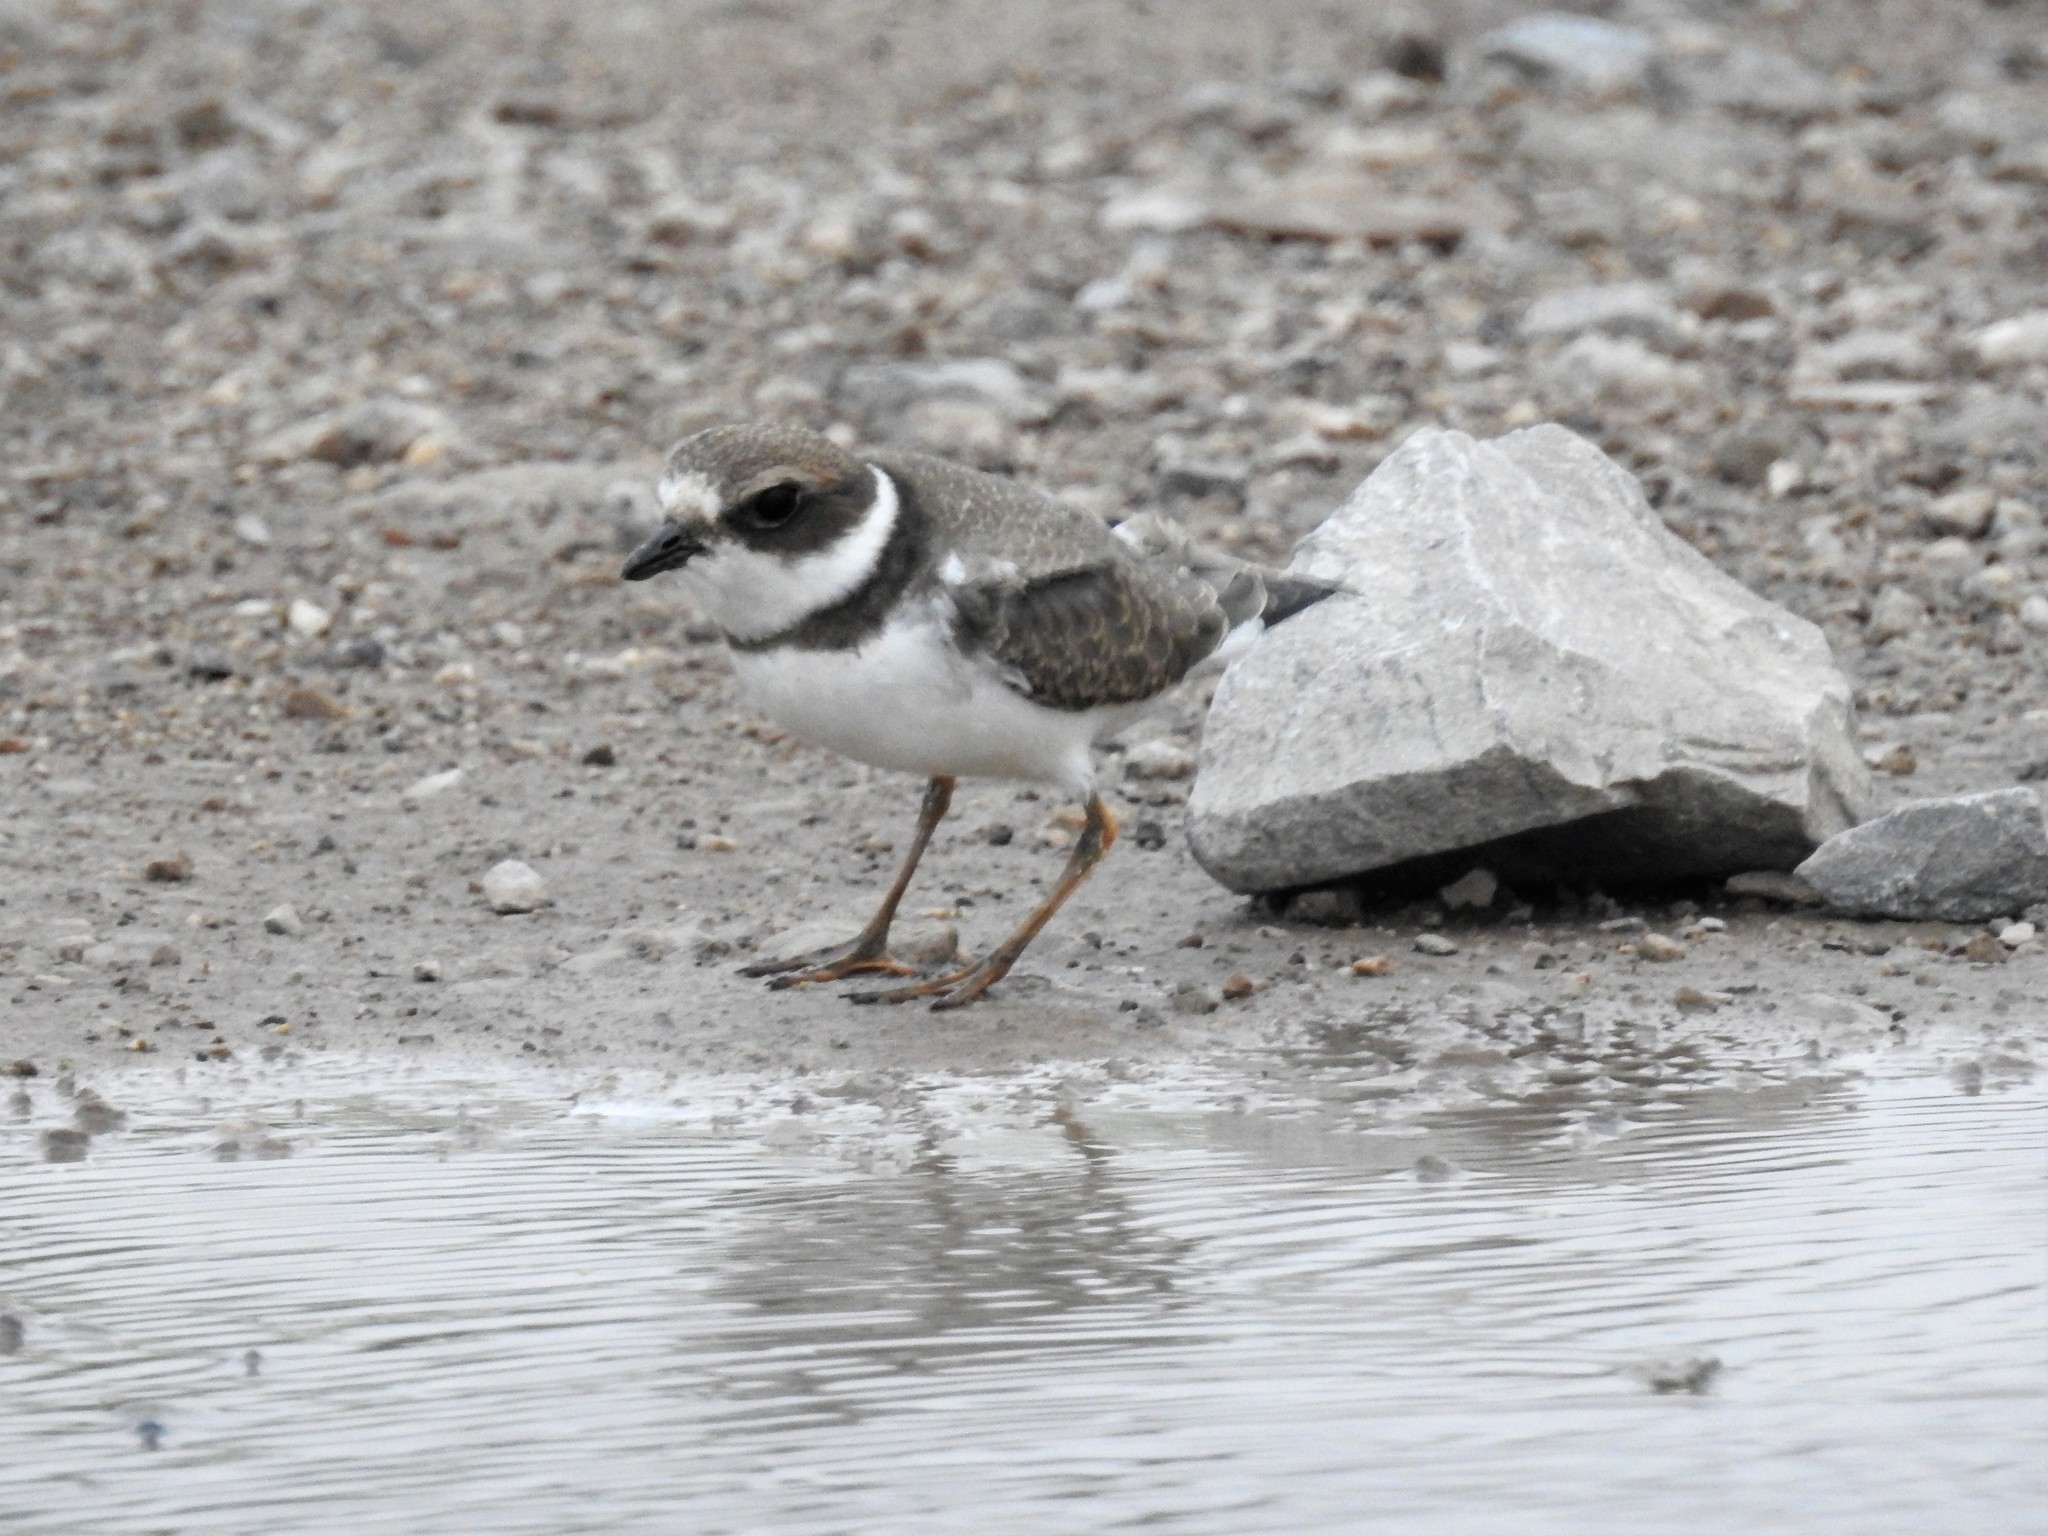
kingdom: Animalia
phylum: Chordata
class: Aves
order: Charadriiformes
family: Charadriidae
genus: Charadrius
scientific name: Charadrius semipalmatus
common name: Semipalmated plover
